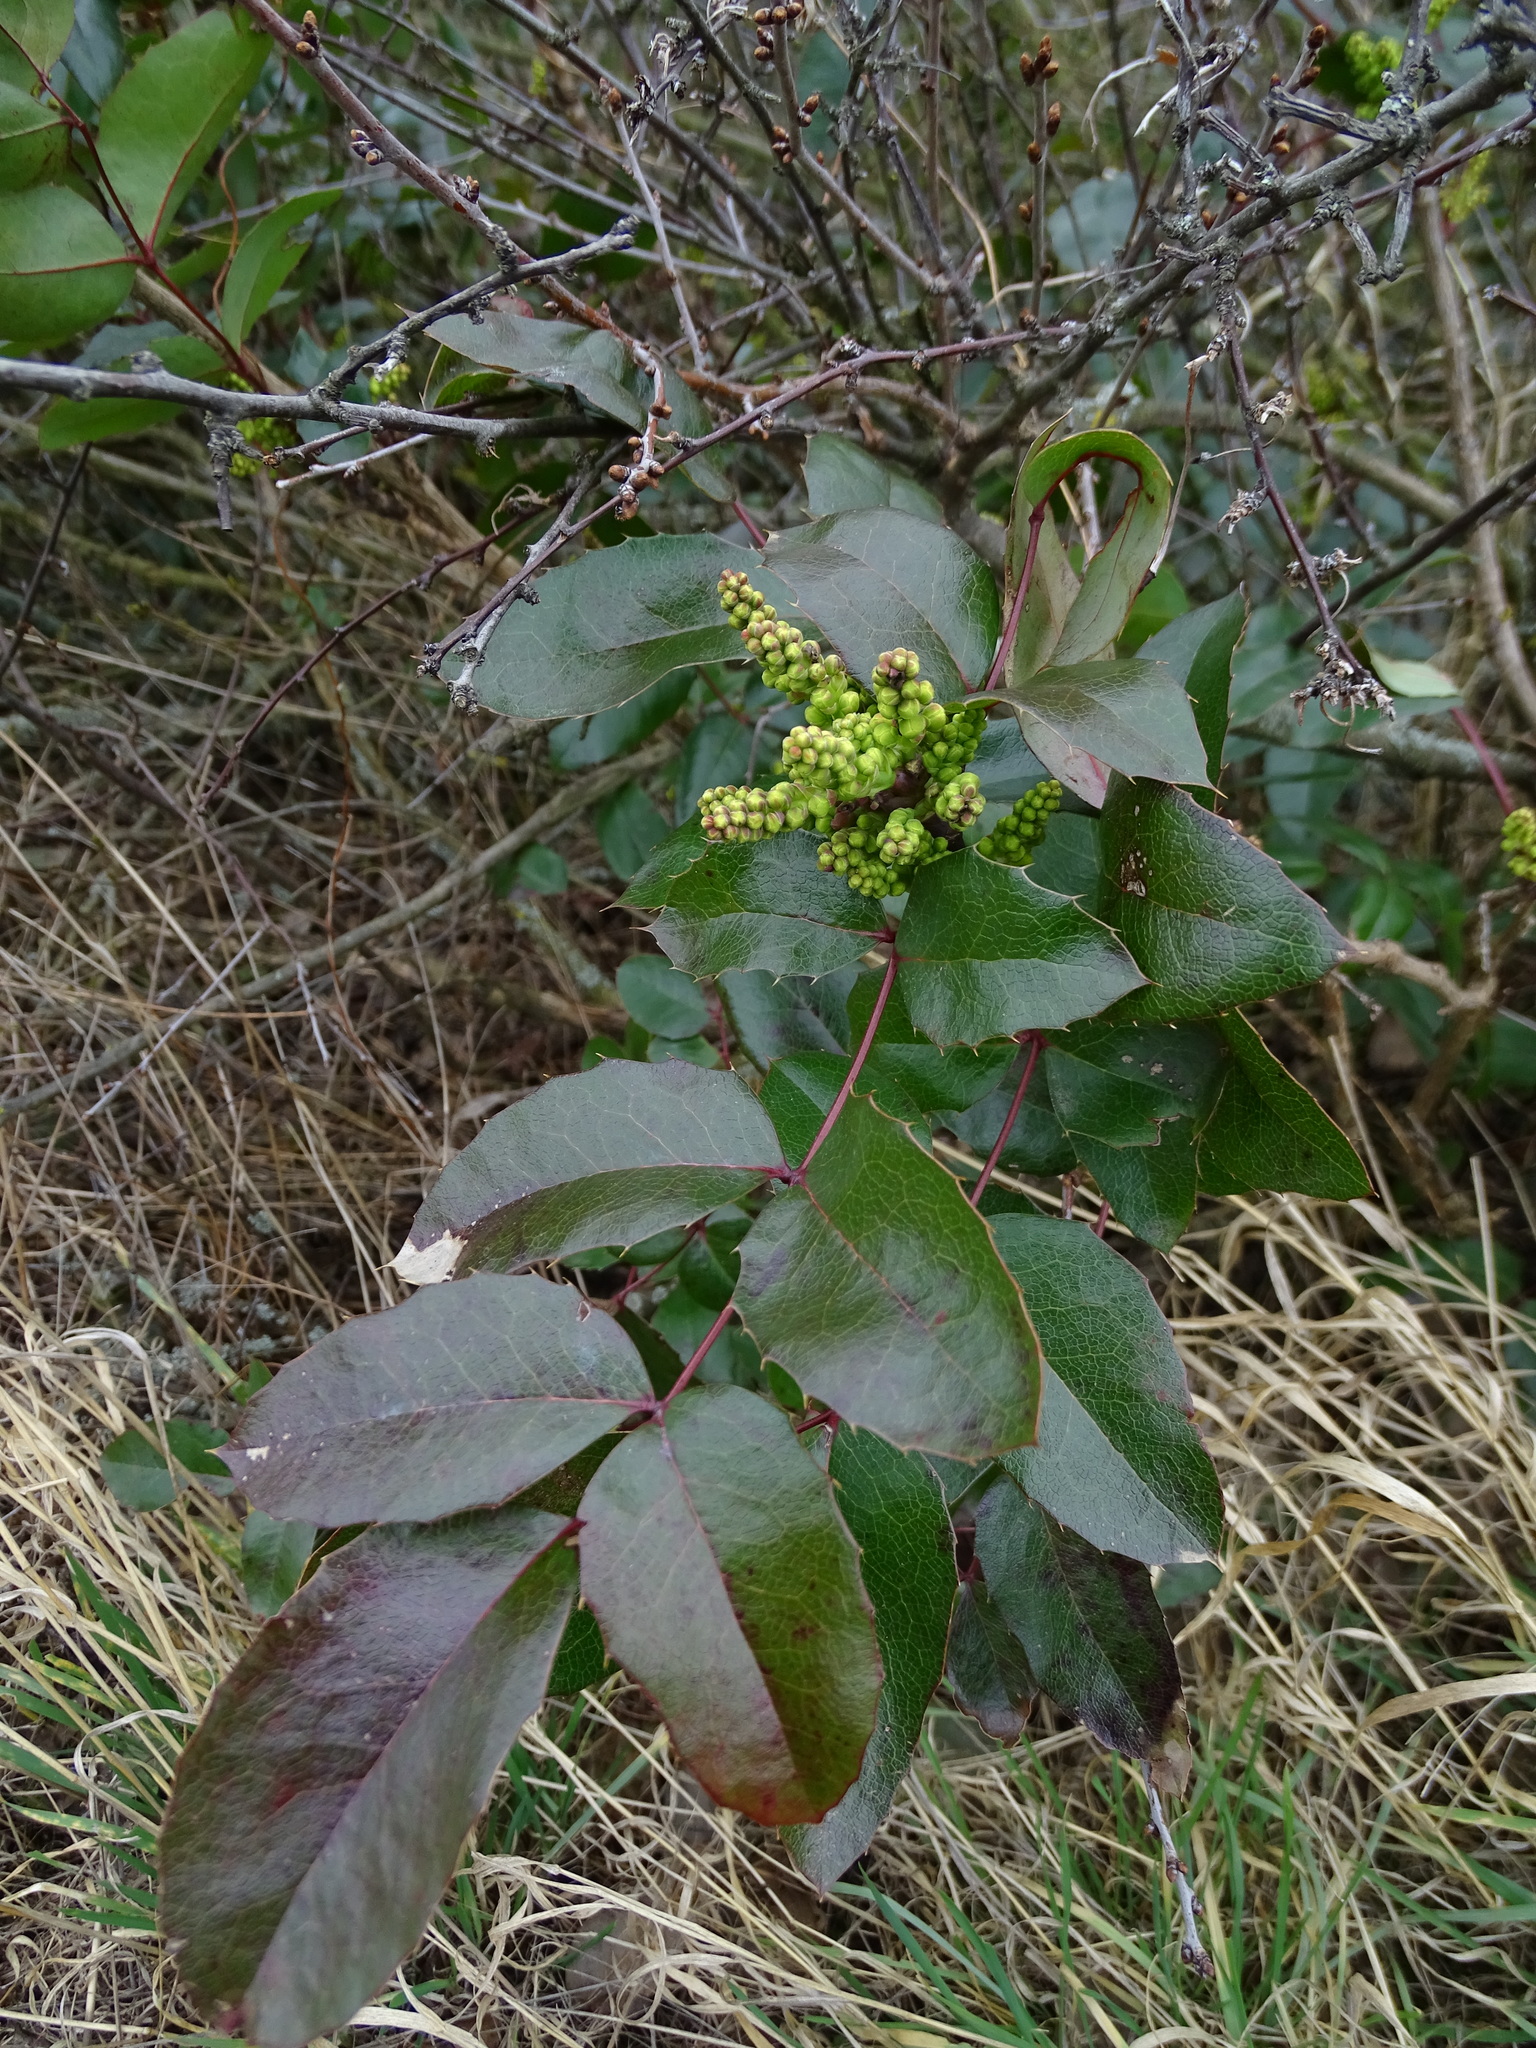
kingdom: Plantae
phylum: Tracheophyta
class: Magnoliopsida
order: Ranunculales
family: Berberidaceae
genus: Mahonia
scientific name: Mahonia aquifolium
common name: Oregon-grape
